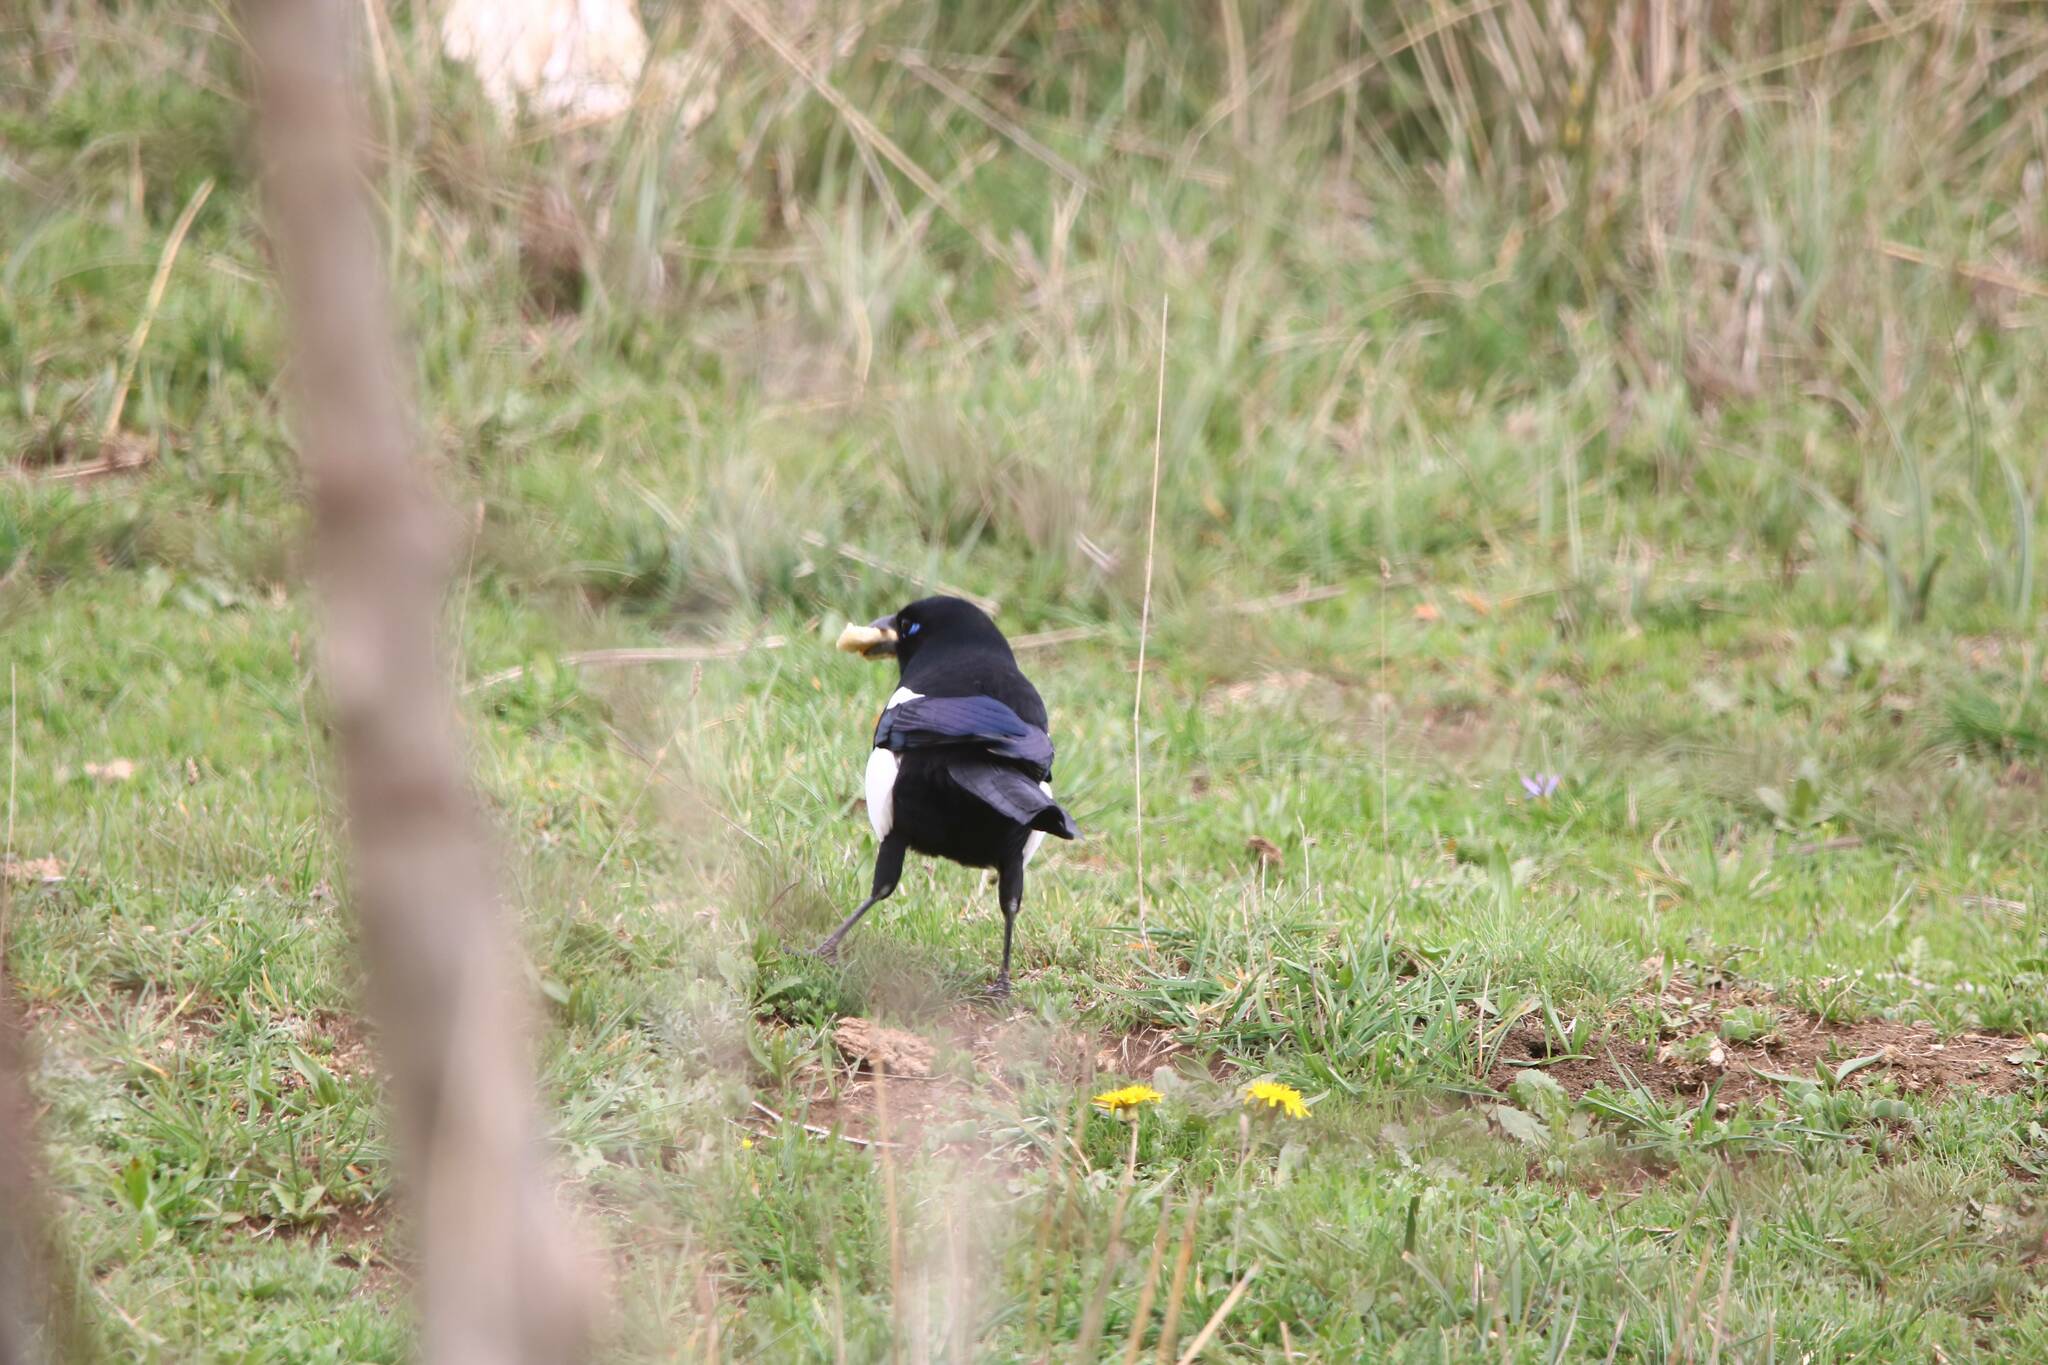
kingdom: Animalia
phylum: Chordata
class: Aves
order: Passeriformes
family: Corvidae
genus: Pica
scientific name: Pica mauritanica
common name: Maghreb magpie
